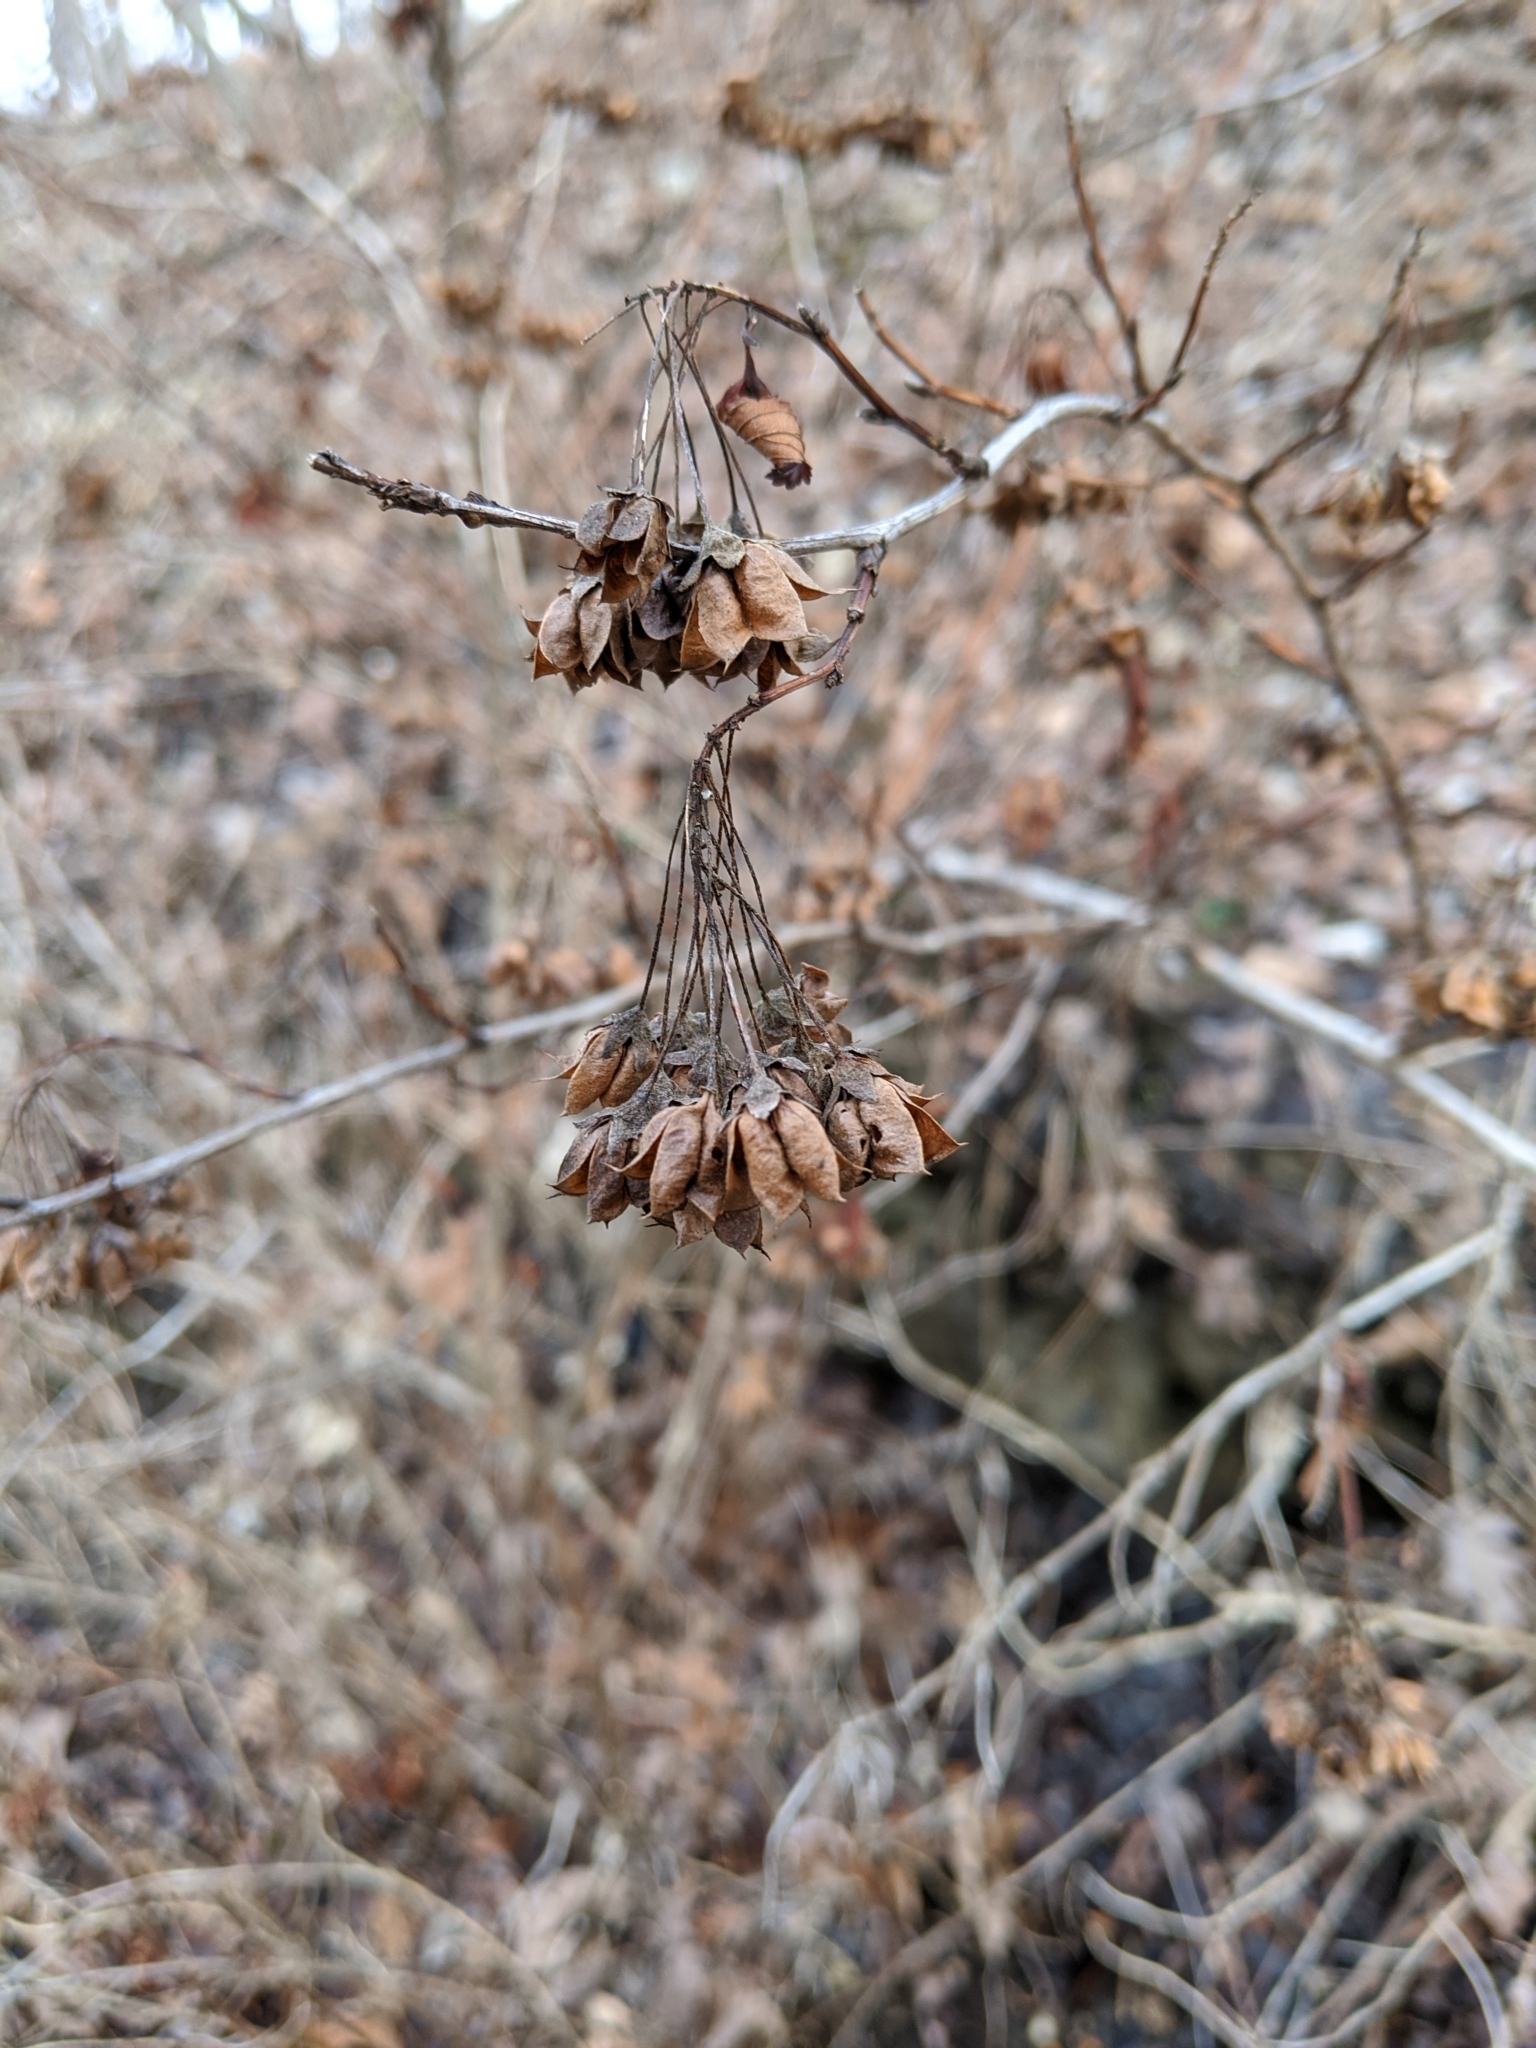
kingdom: Plantae
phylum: Tracheophyta
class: Magnoliopsida
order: Rosales
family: Rosaceae
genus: Physocarpus
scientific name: Physocarpus intermedius
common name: Midwestern ninebark
